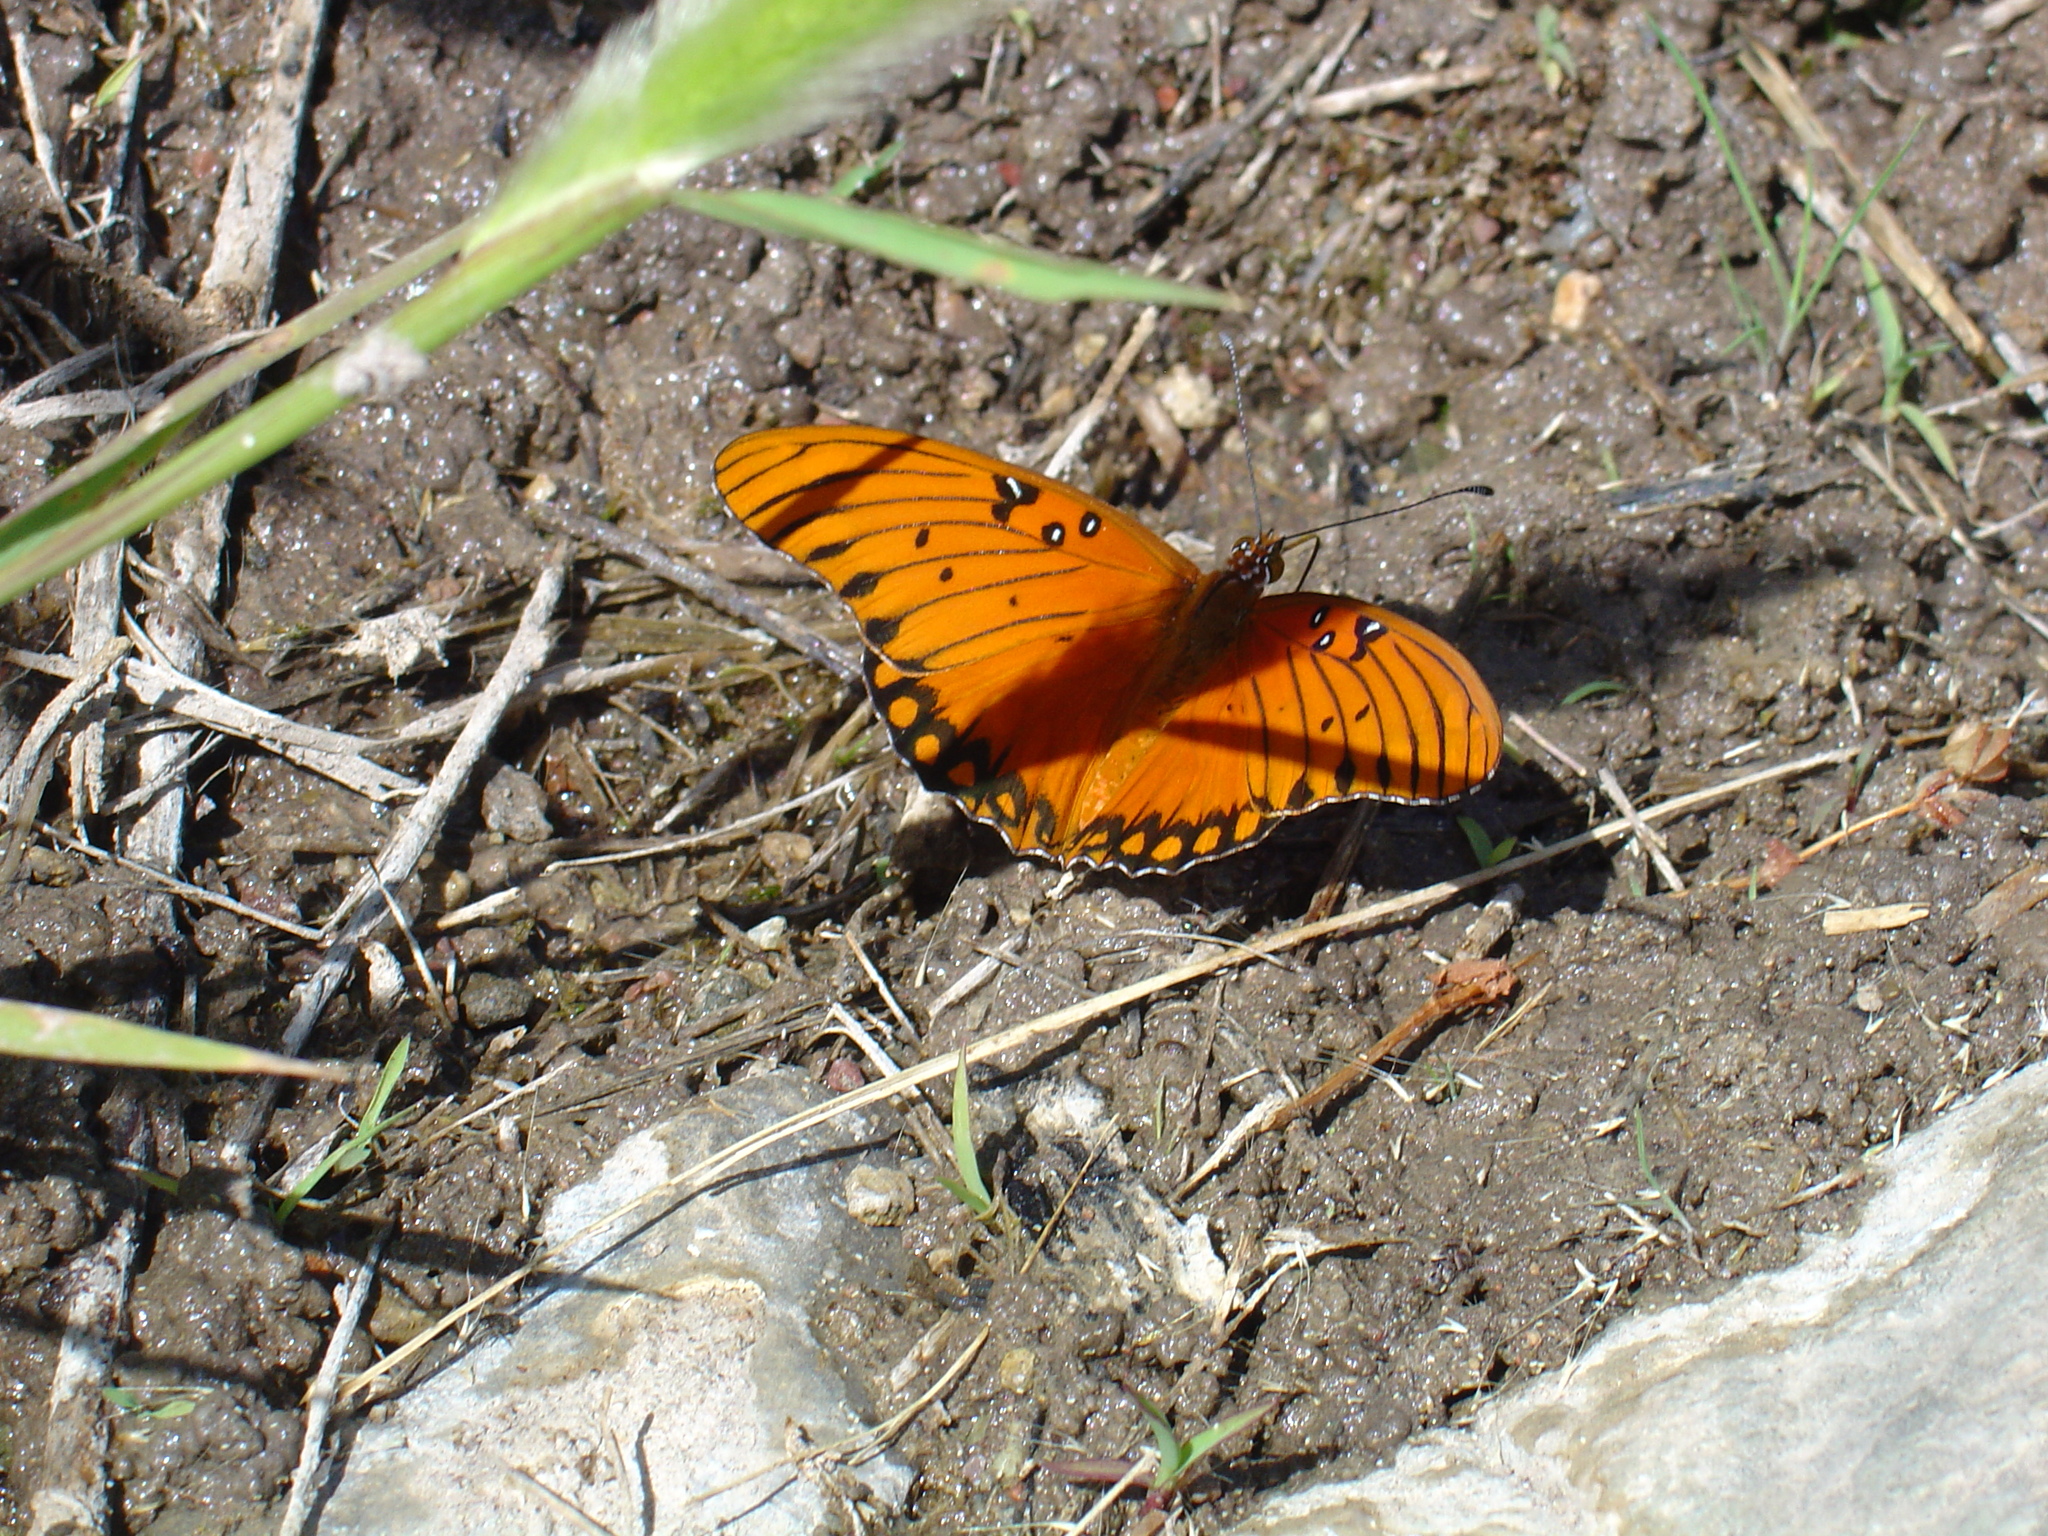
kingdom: Animalia
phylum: Arthropoda
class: Insecta
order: Lepidoptera
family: Nymphalidae
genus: Dione
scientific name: Dione vanillae
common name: Gulf fritillary
